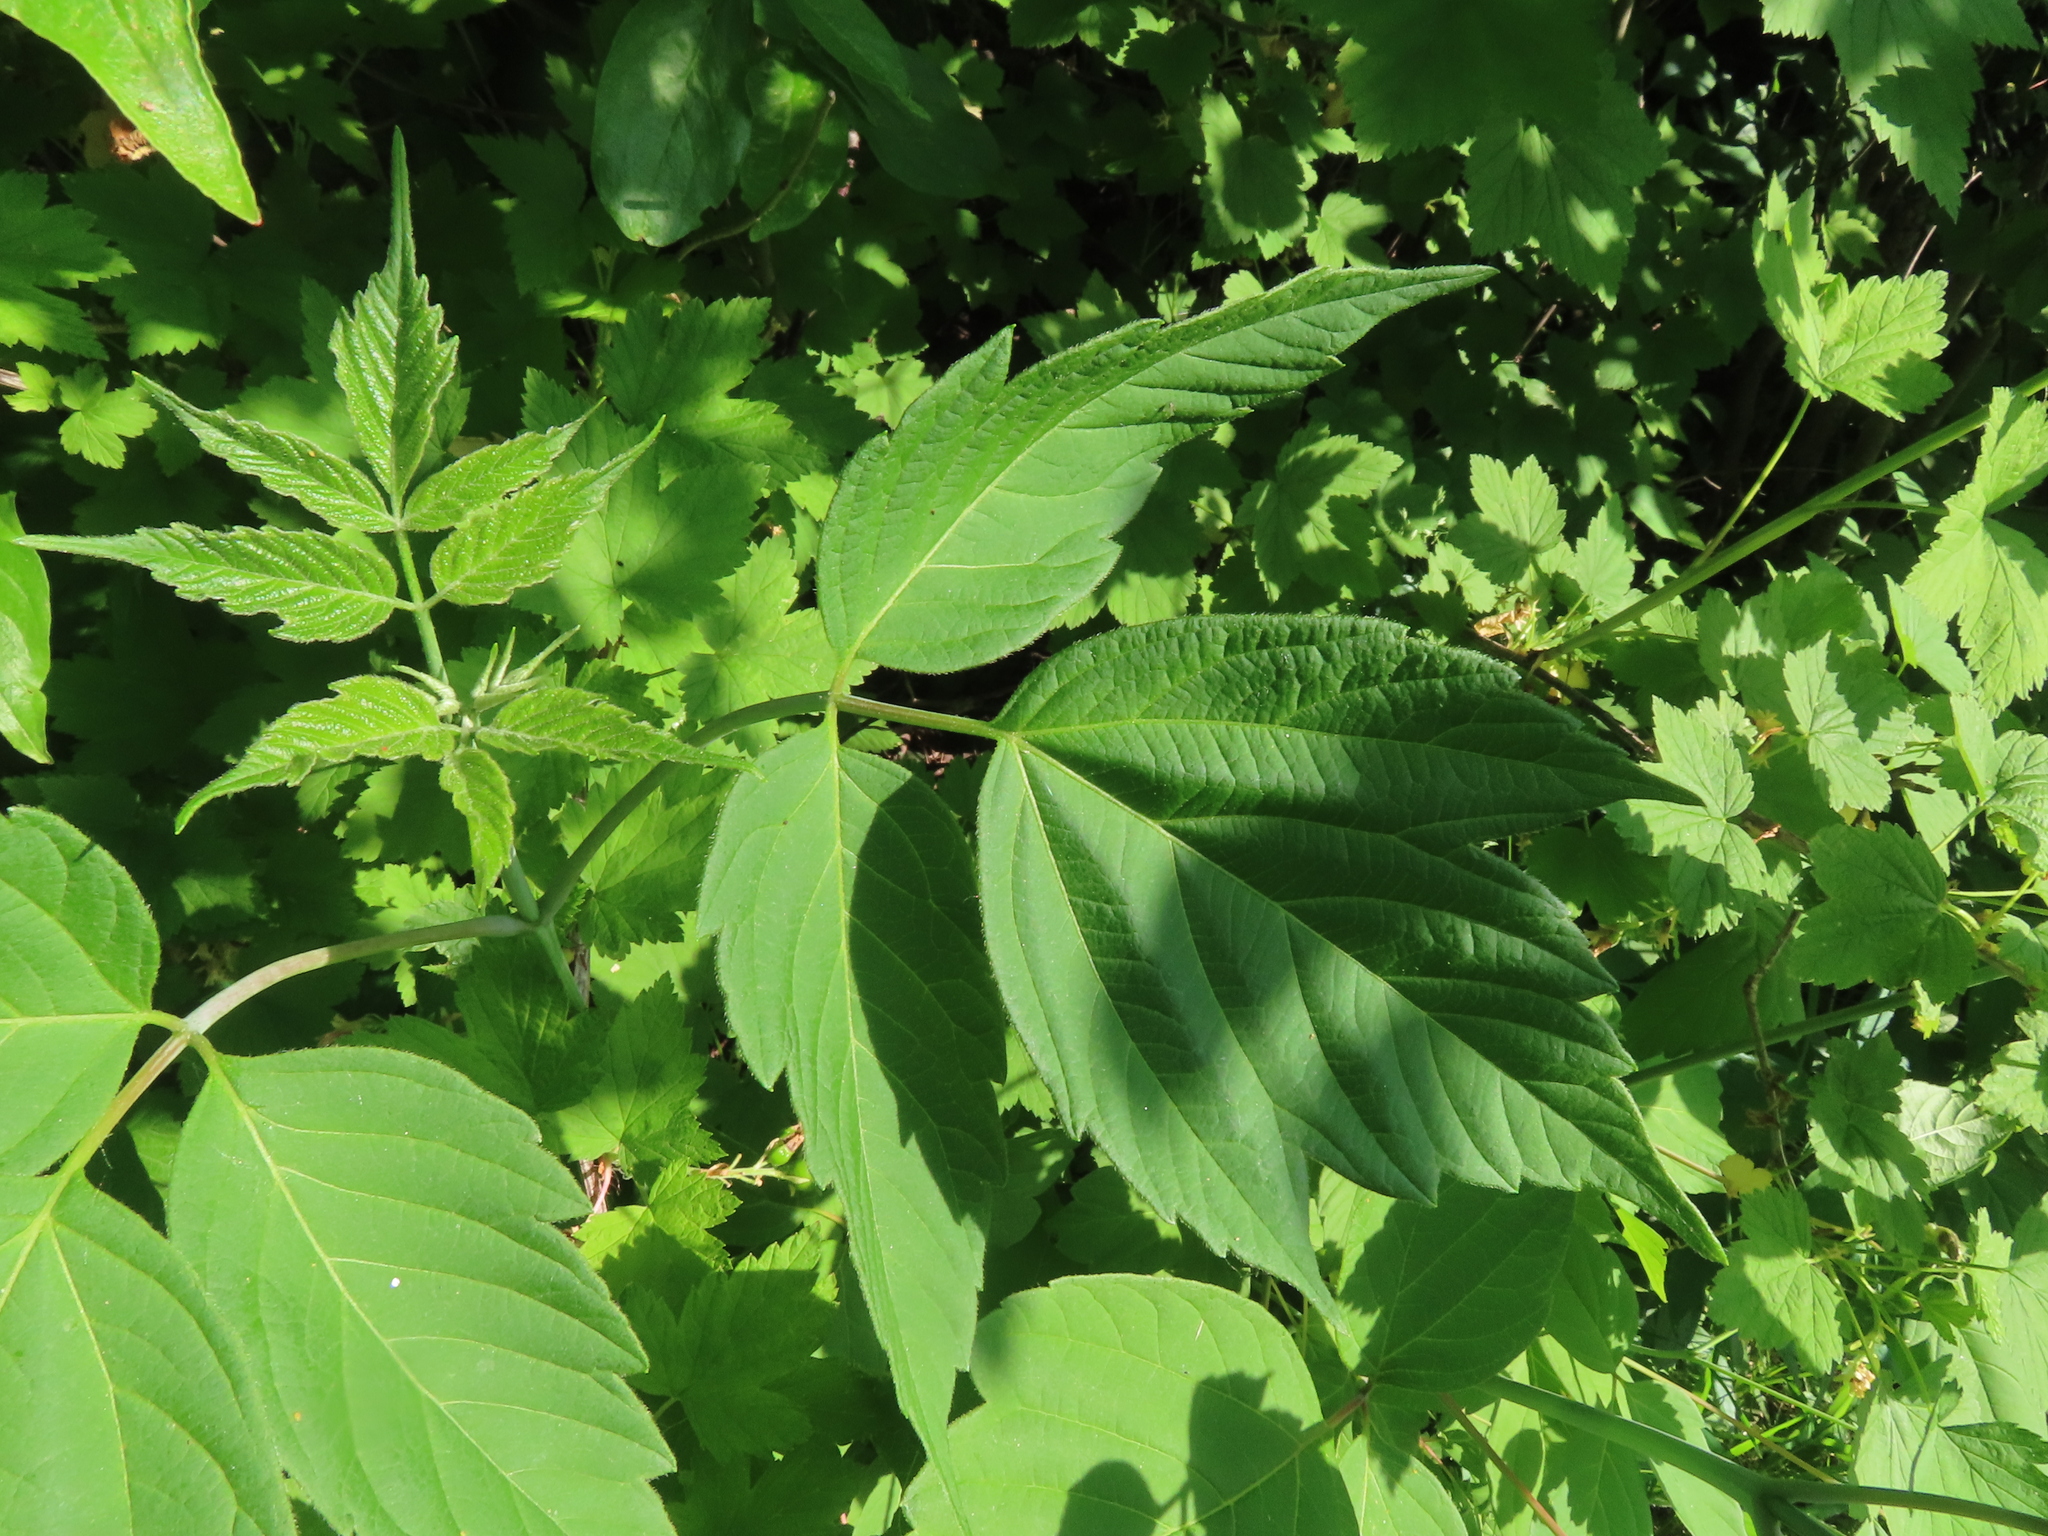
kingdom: Plantae
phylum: Tracheophyta
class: Magnoliopsida
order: Sapindales
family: Sapindaceae
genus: Acer
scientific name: Acer negundo
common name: Ashleaf maple
